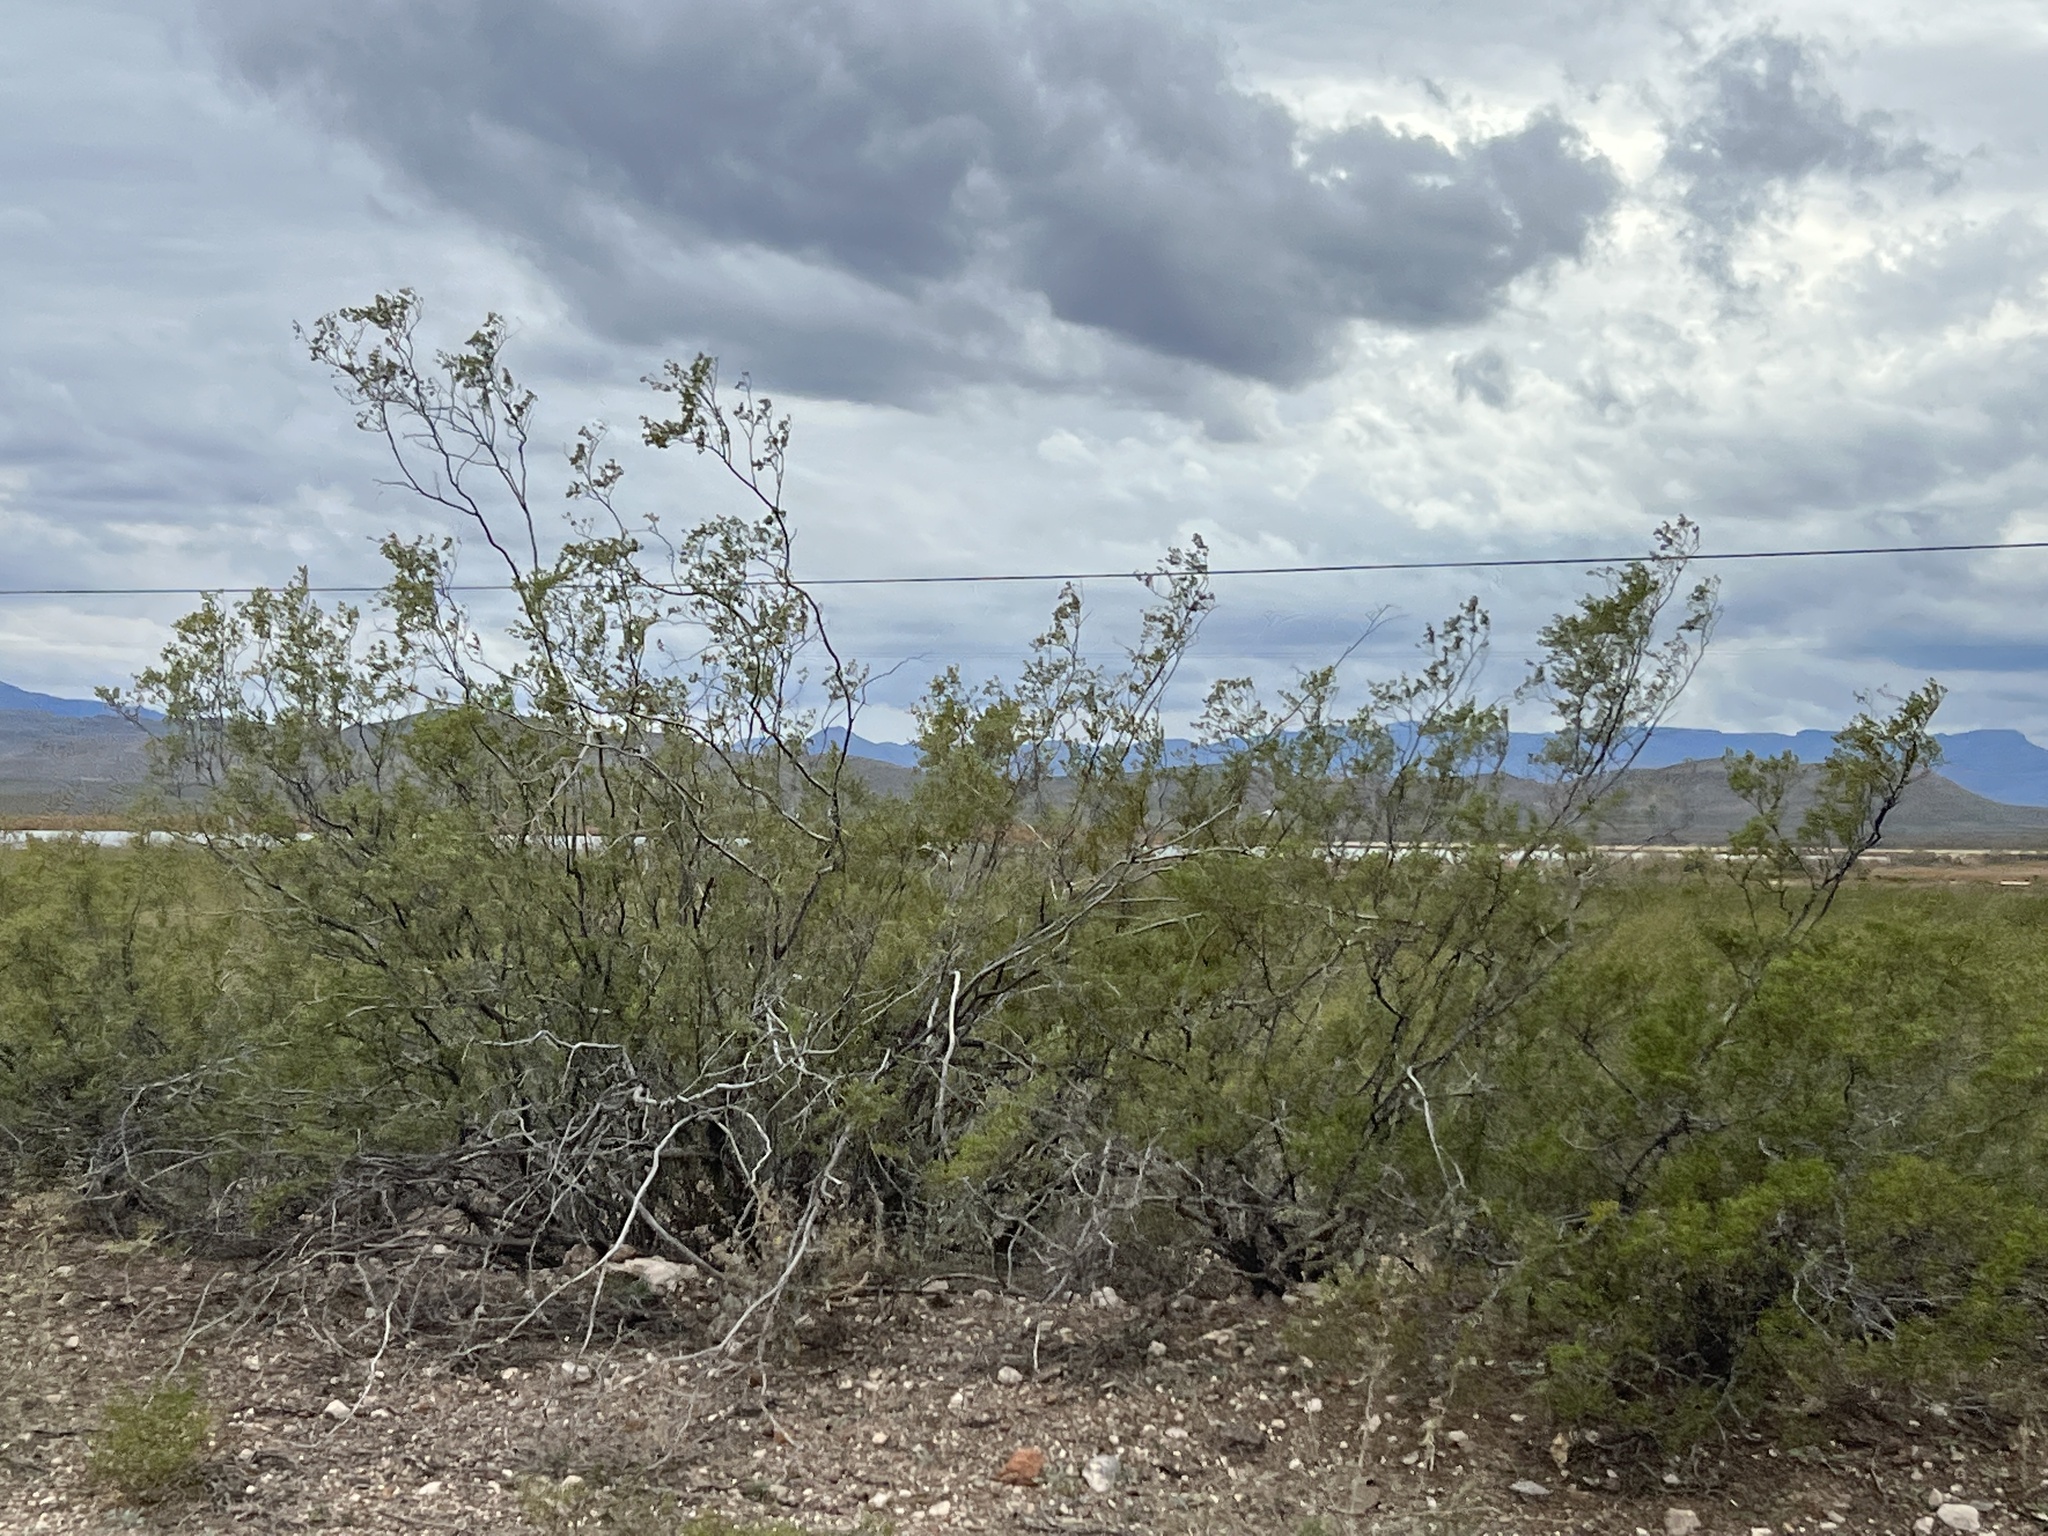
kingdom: Plantae
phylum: Tracheophyta
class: Magnoliopsida
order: Zygophyllales
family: Zygophyllaceae
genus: Larrea
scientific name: Larrea tridentata
